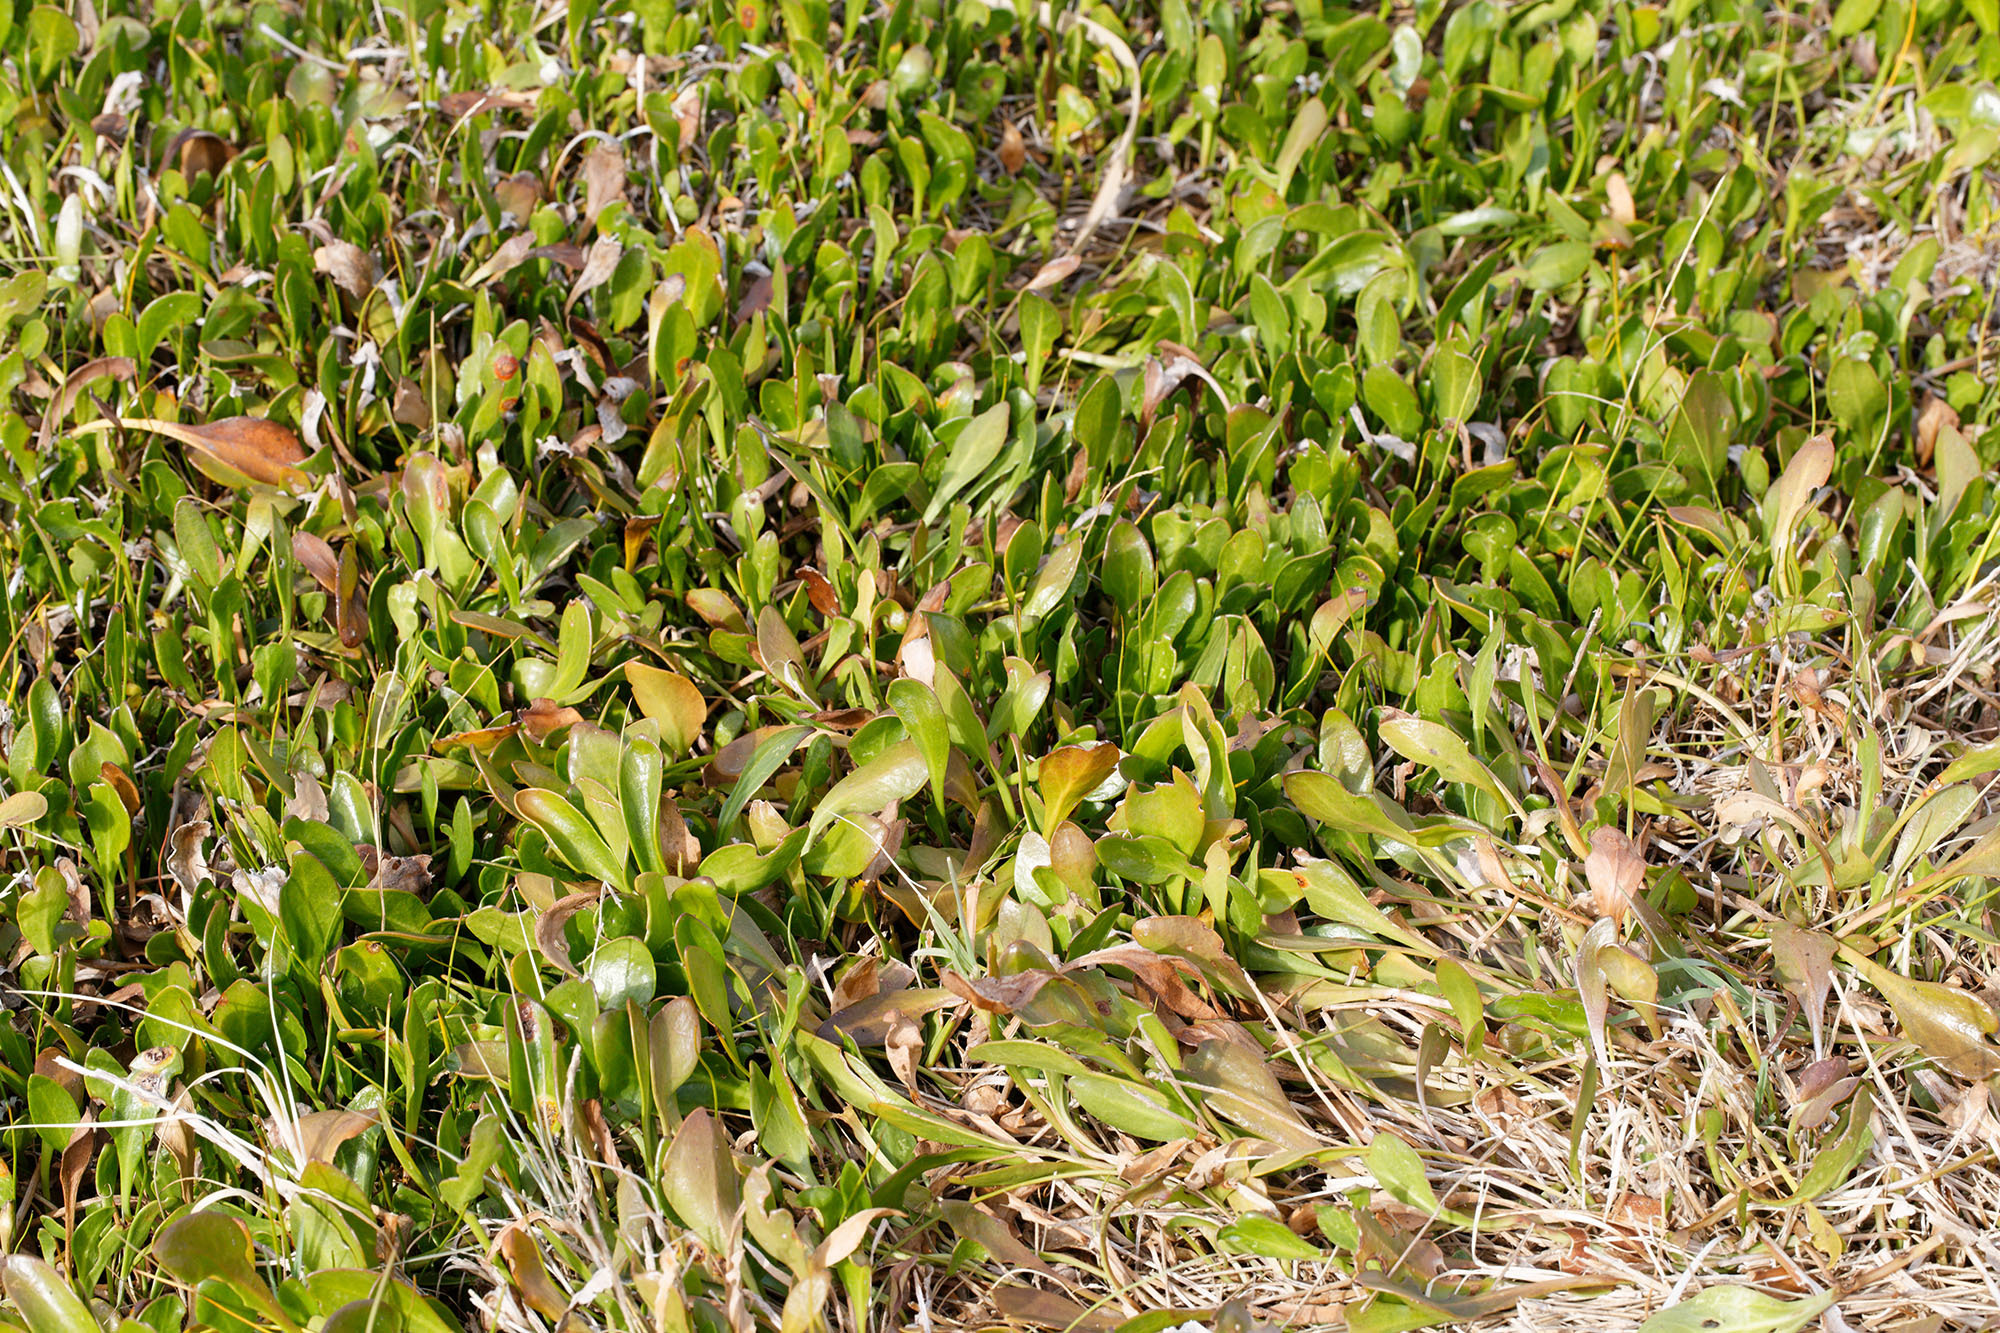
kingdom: Plantae
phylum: Tracheophyta
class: Magnoliopsida
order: Asterales
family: Goodeniaceae
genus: Goodenia
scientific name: Goodenia radicans
